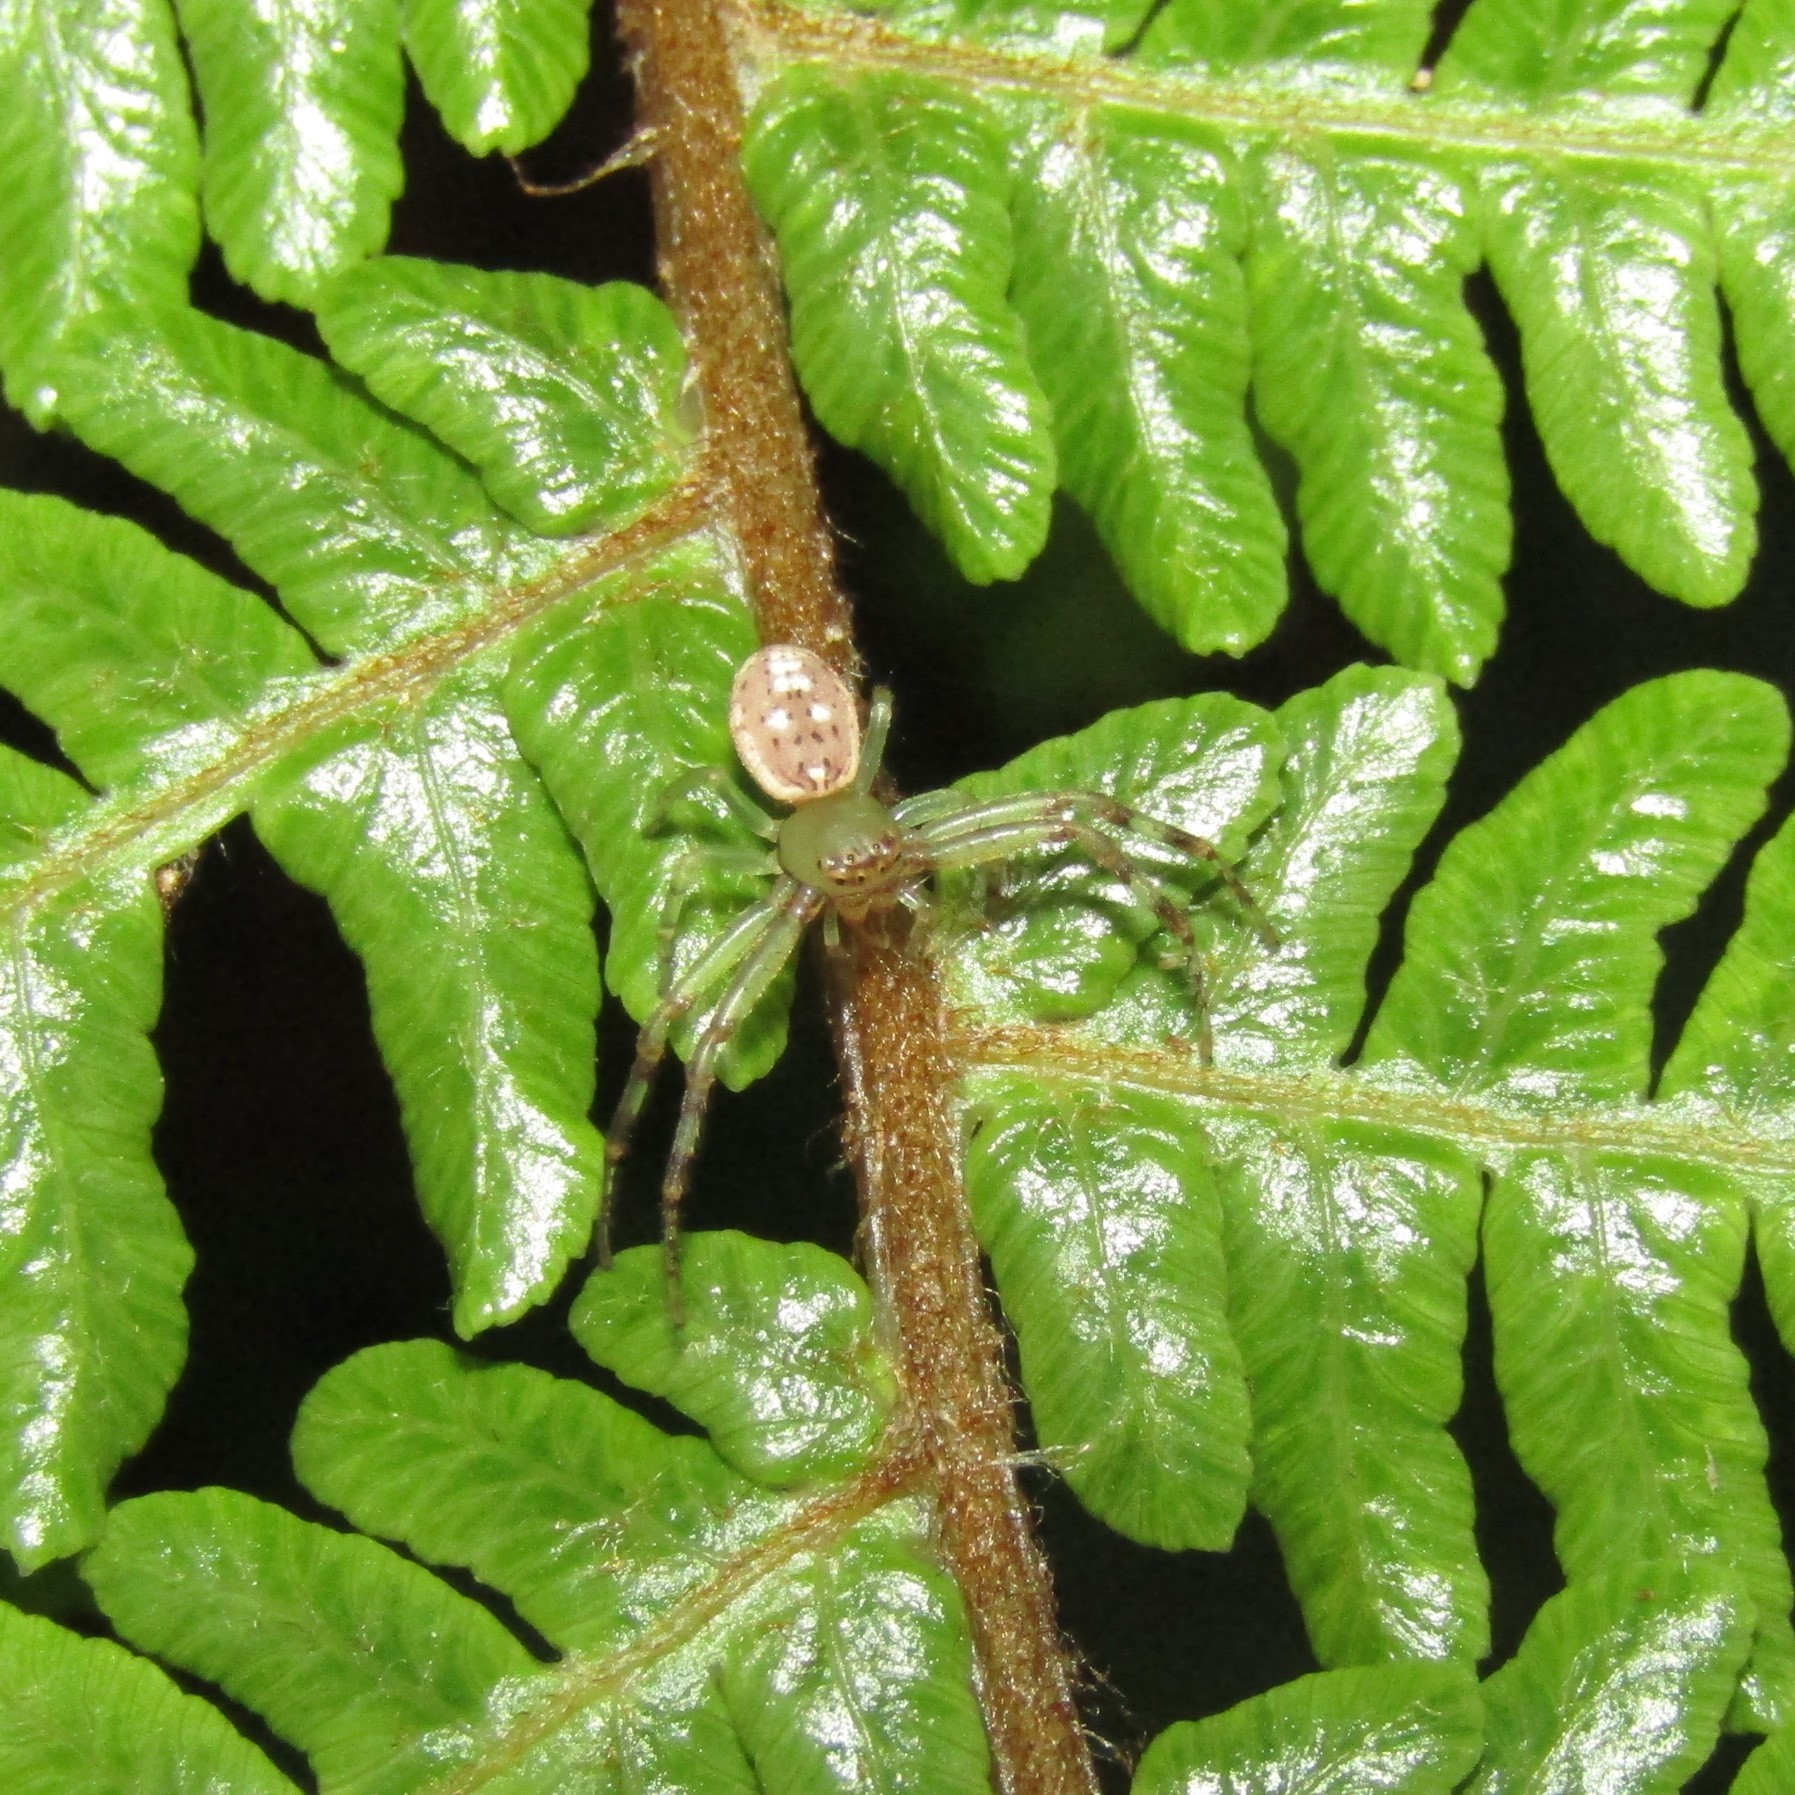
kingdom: Animalia
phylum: Arthropoda
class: Arachnida
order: Araneae
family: Thomisidae
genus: Diaea
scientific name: Diaea ambara
